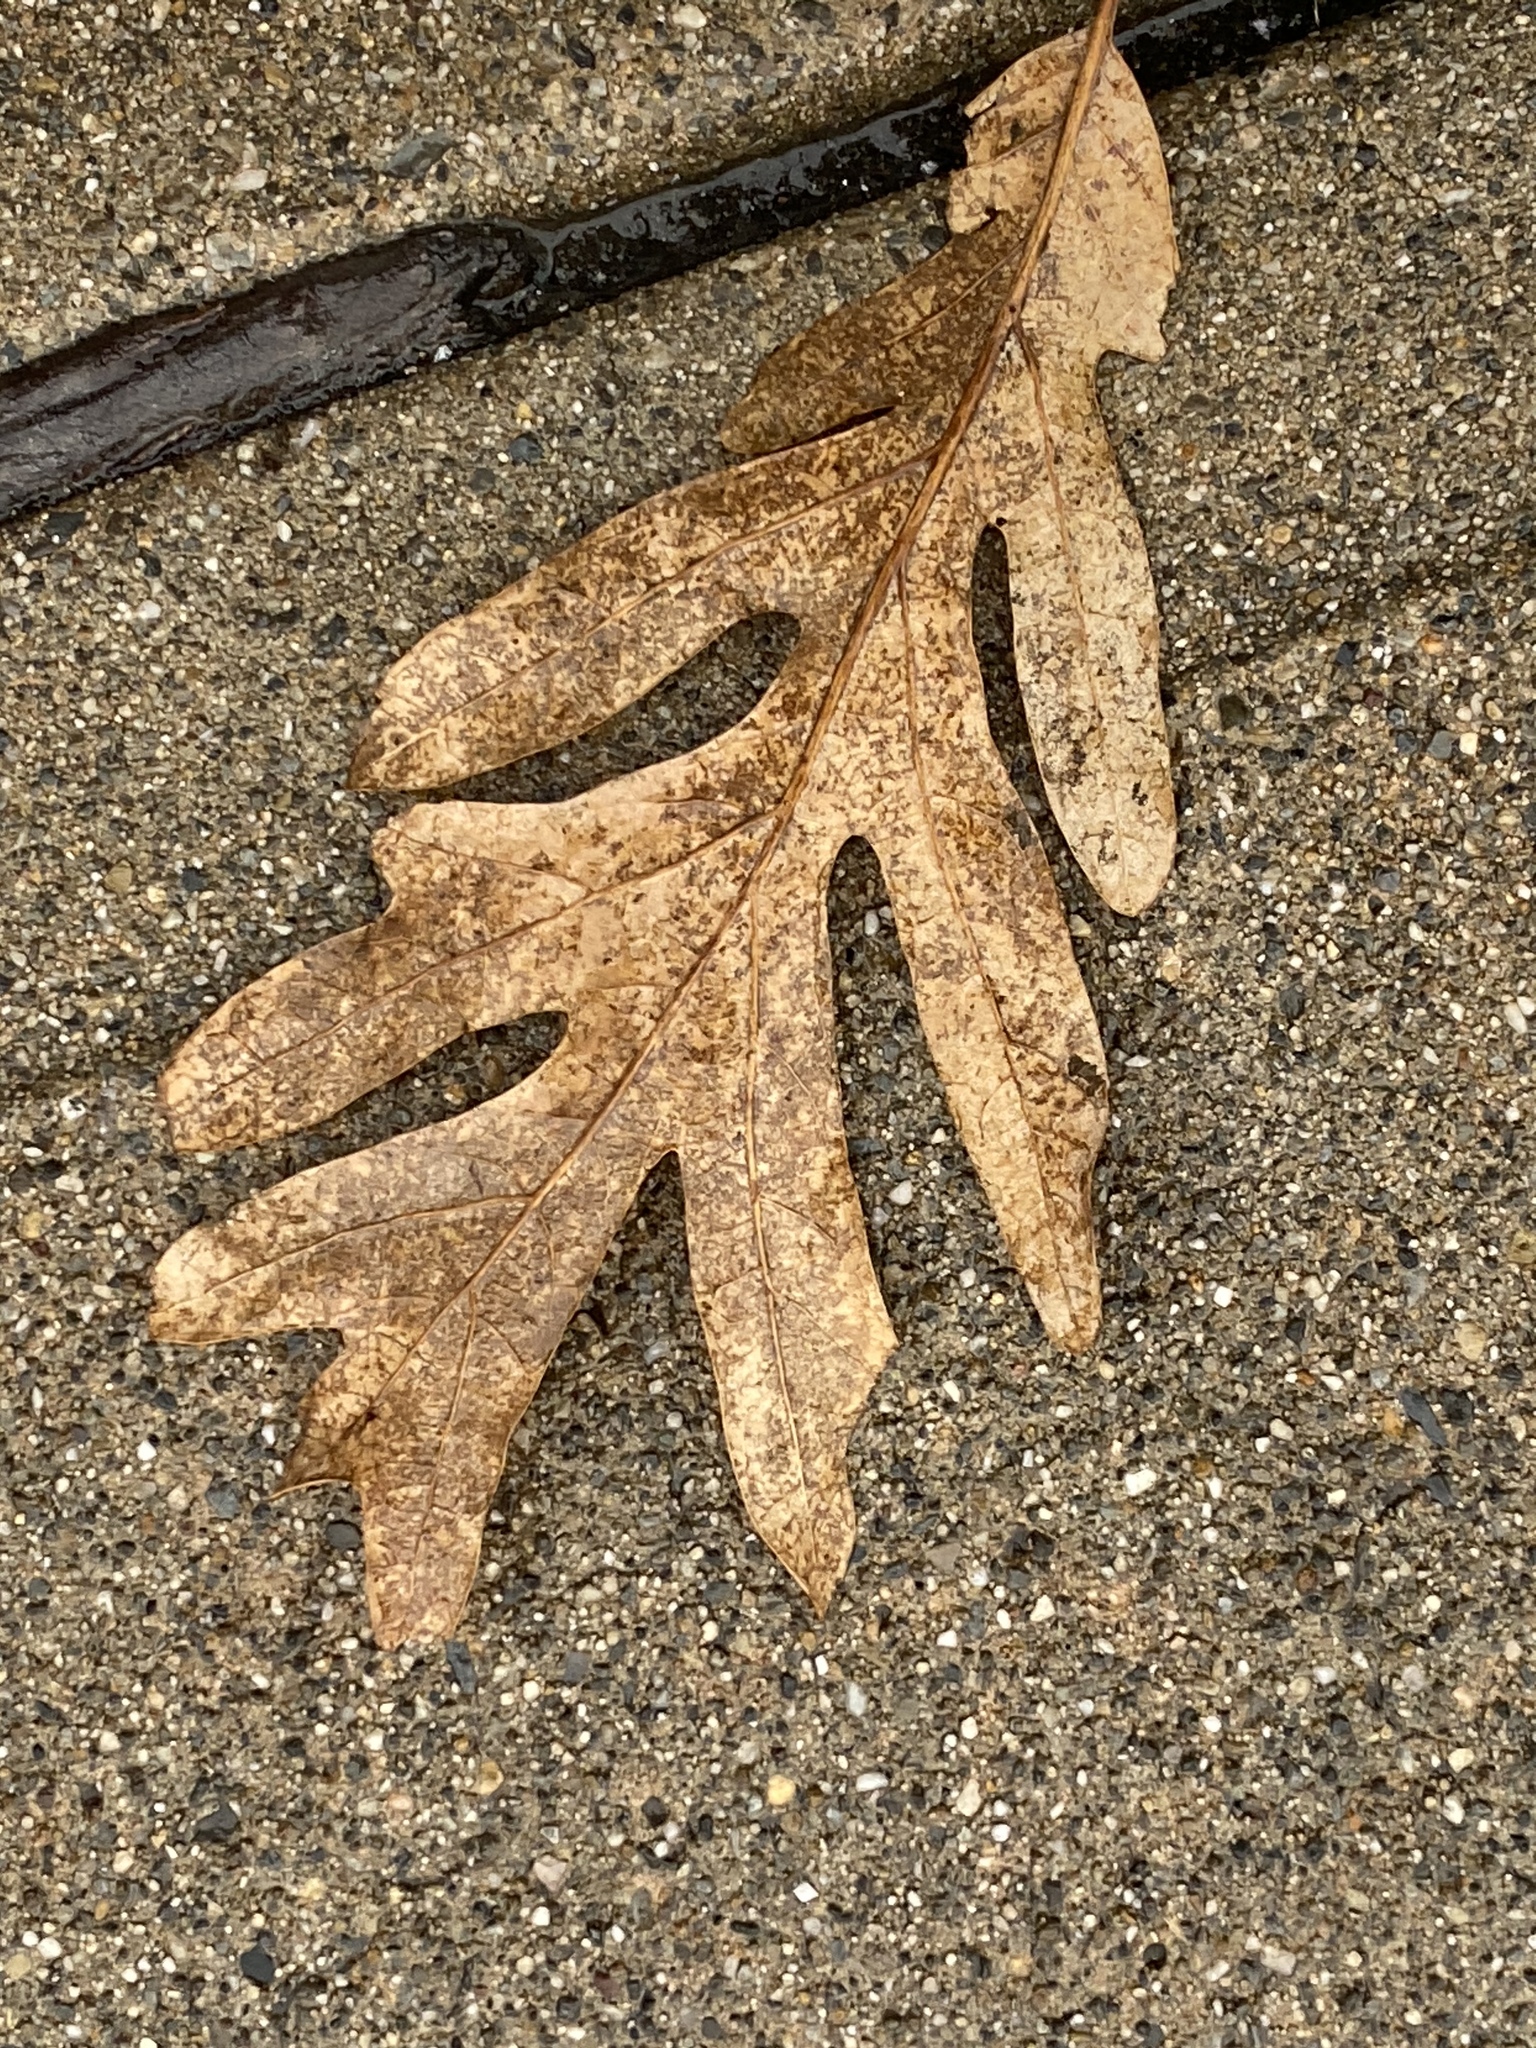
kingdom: Plantae
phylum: Tracheophyta
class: Magnoliopsida
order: Fagales
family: Fagaceae
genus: Quercus
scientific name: Quercus alba
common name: White oak
